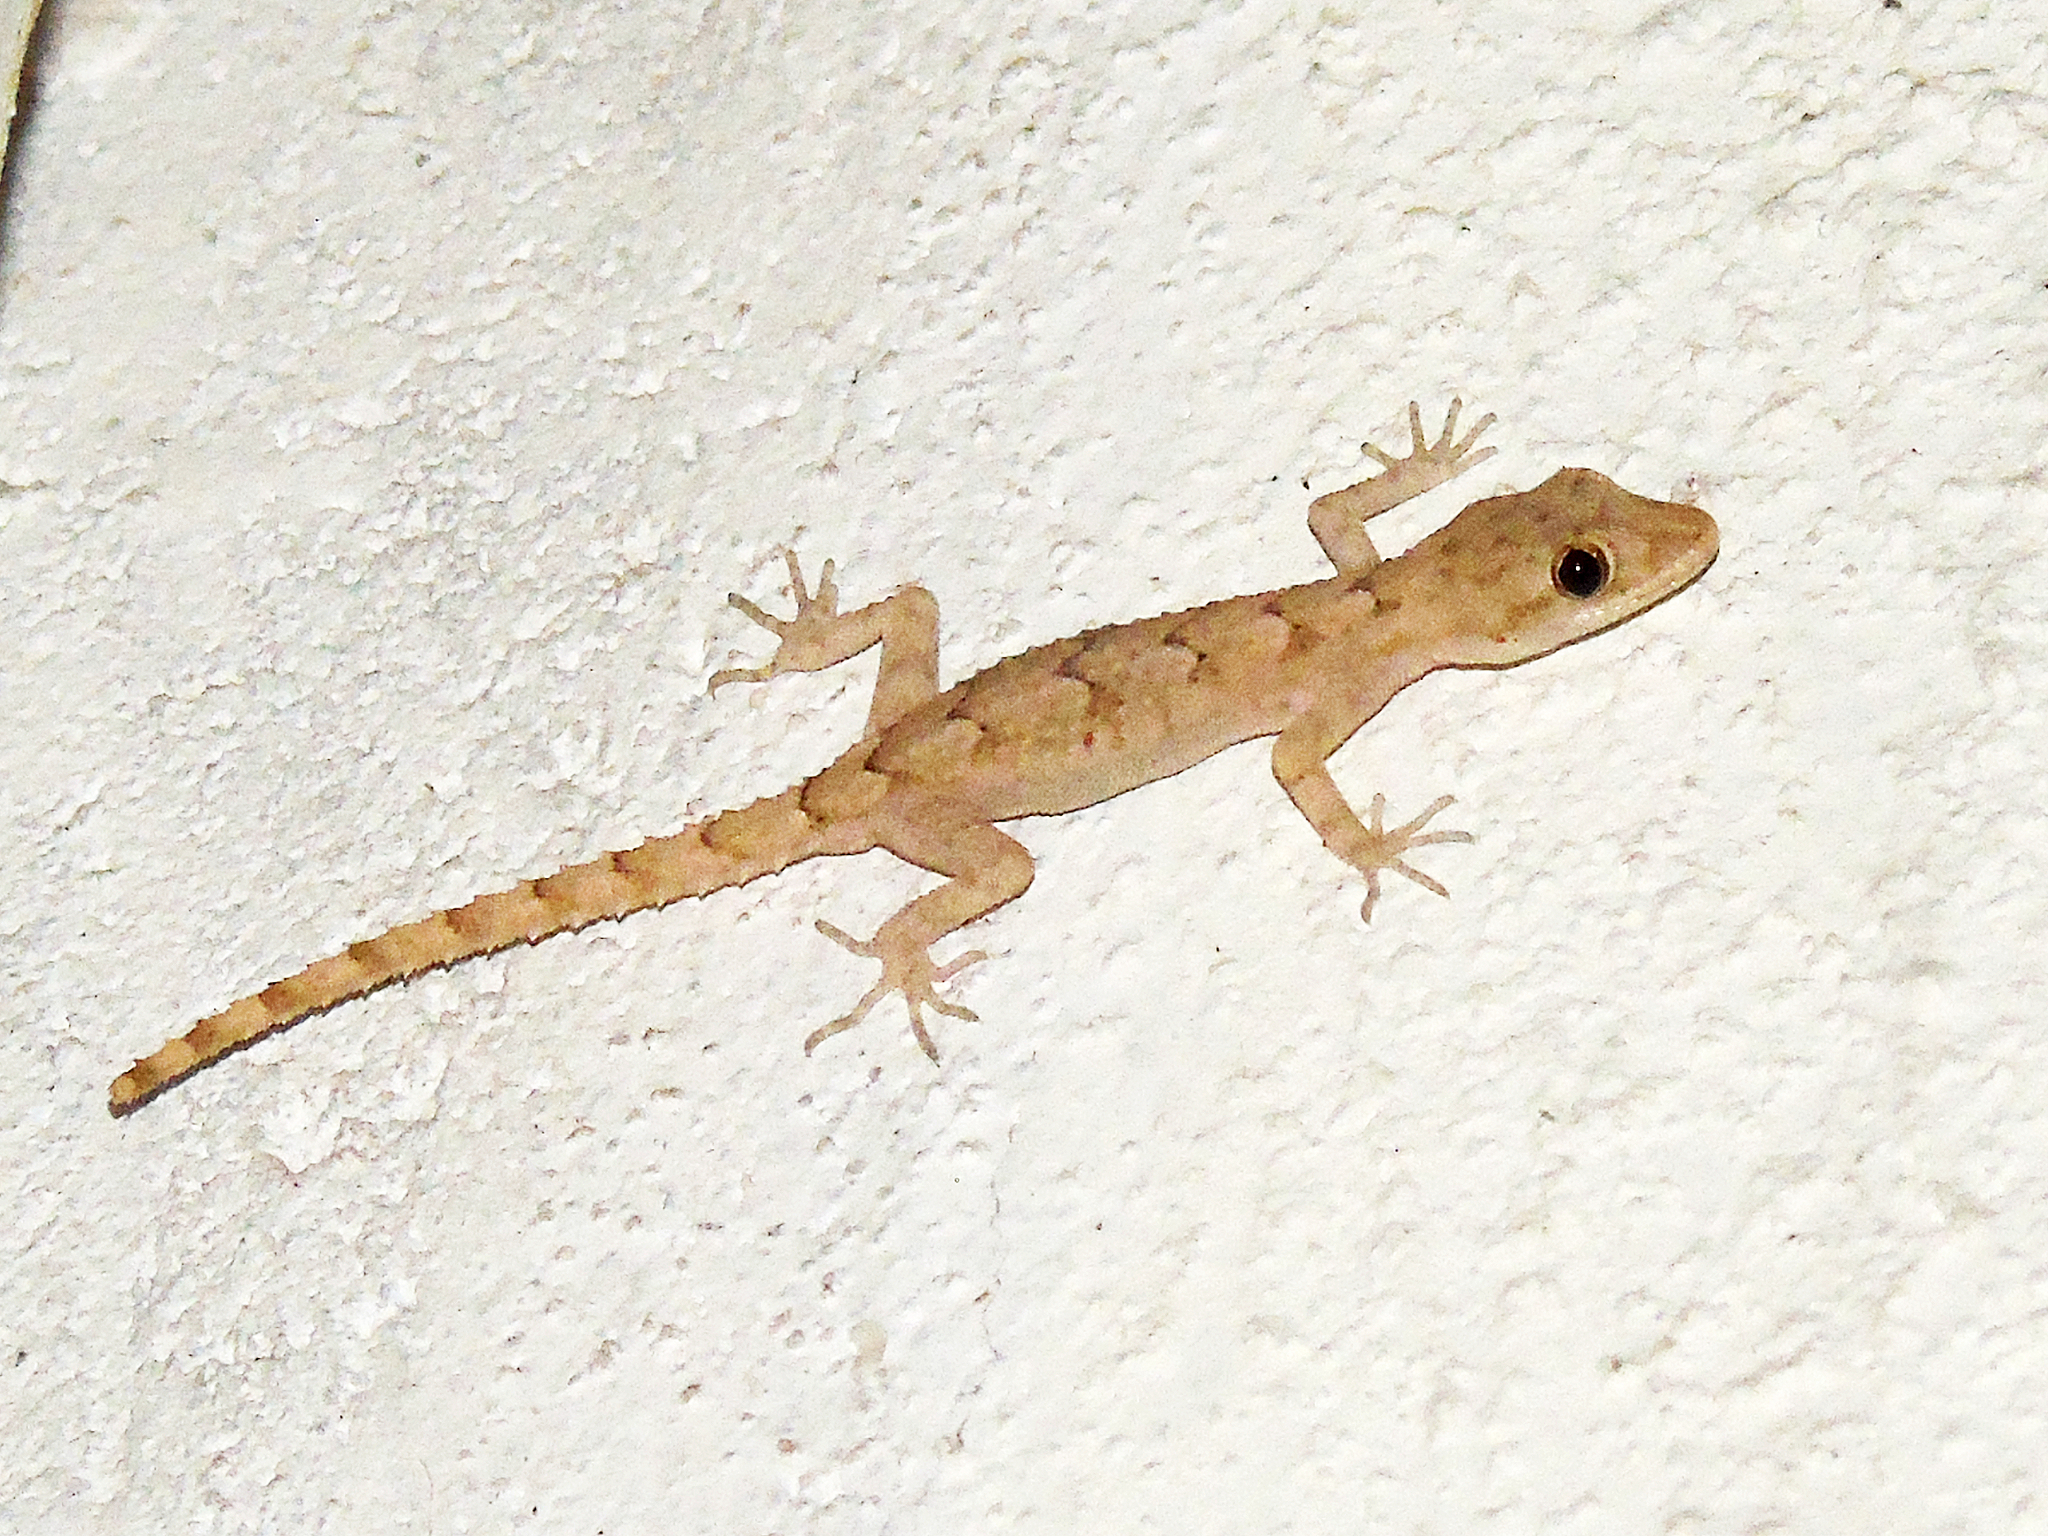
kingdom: Animalia
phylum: Chordata
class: Squamata
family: Gekkonidae
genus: Mediodactylus
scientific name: Mediodactylus heterocercus
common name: Asia minor thin-toed gecko
